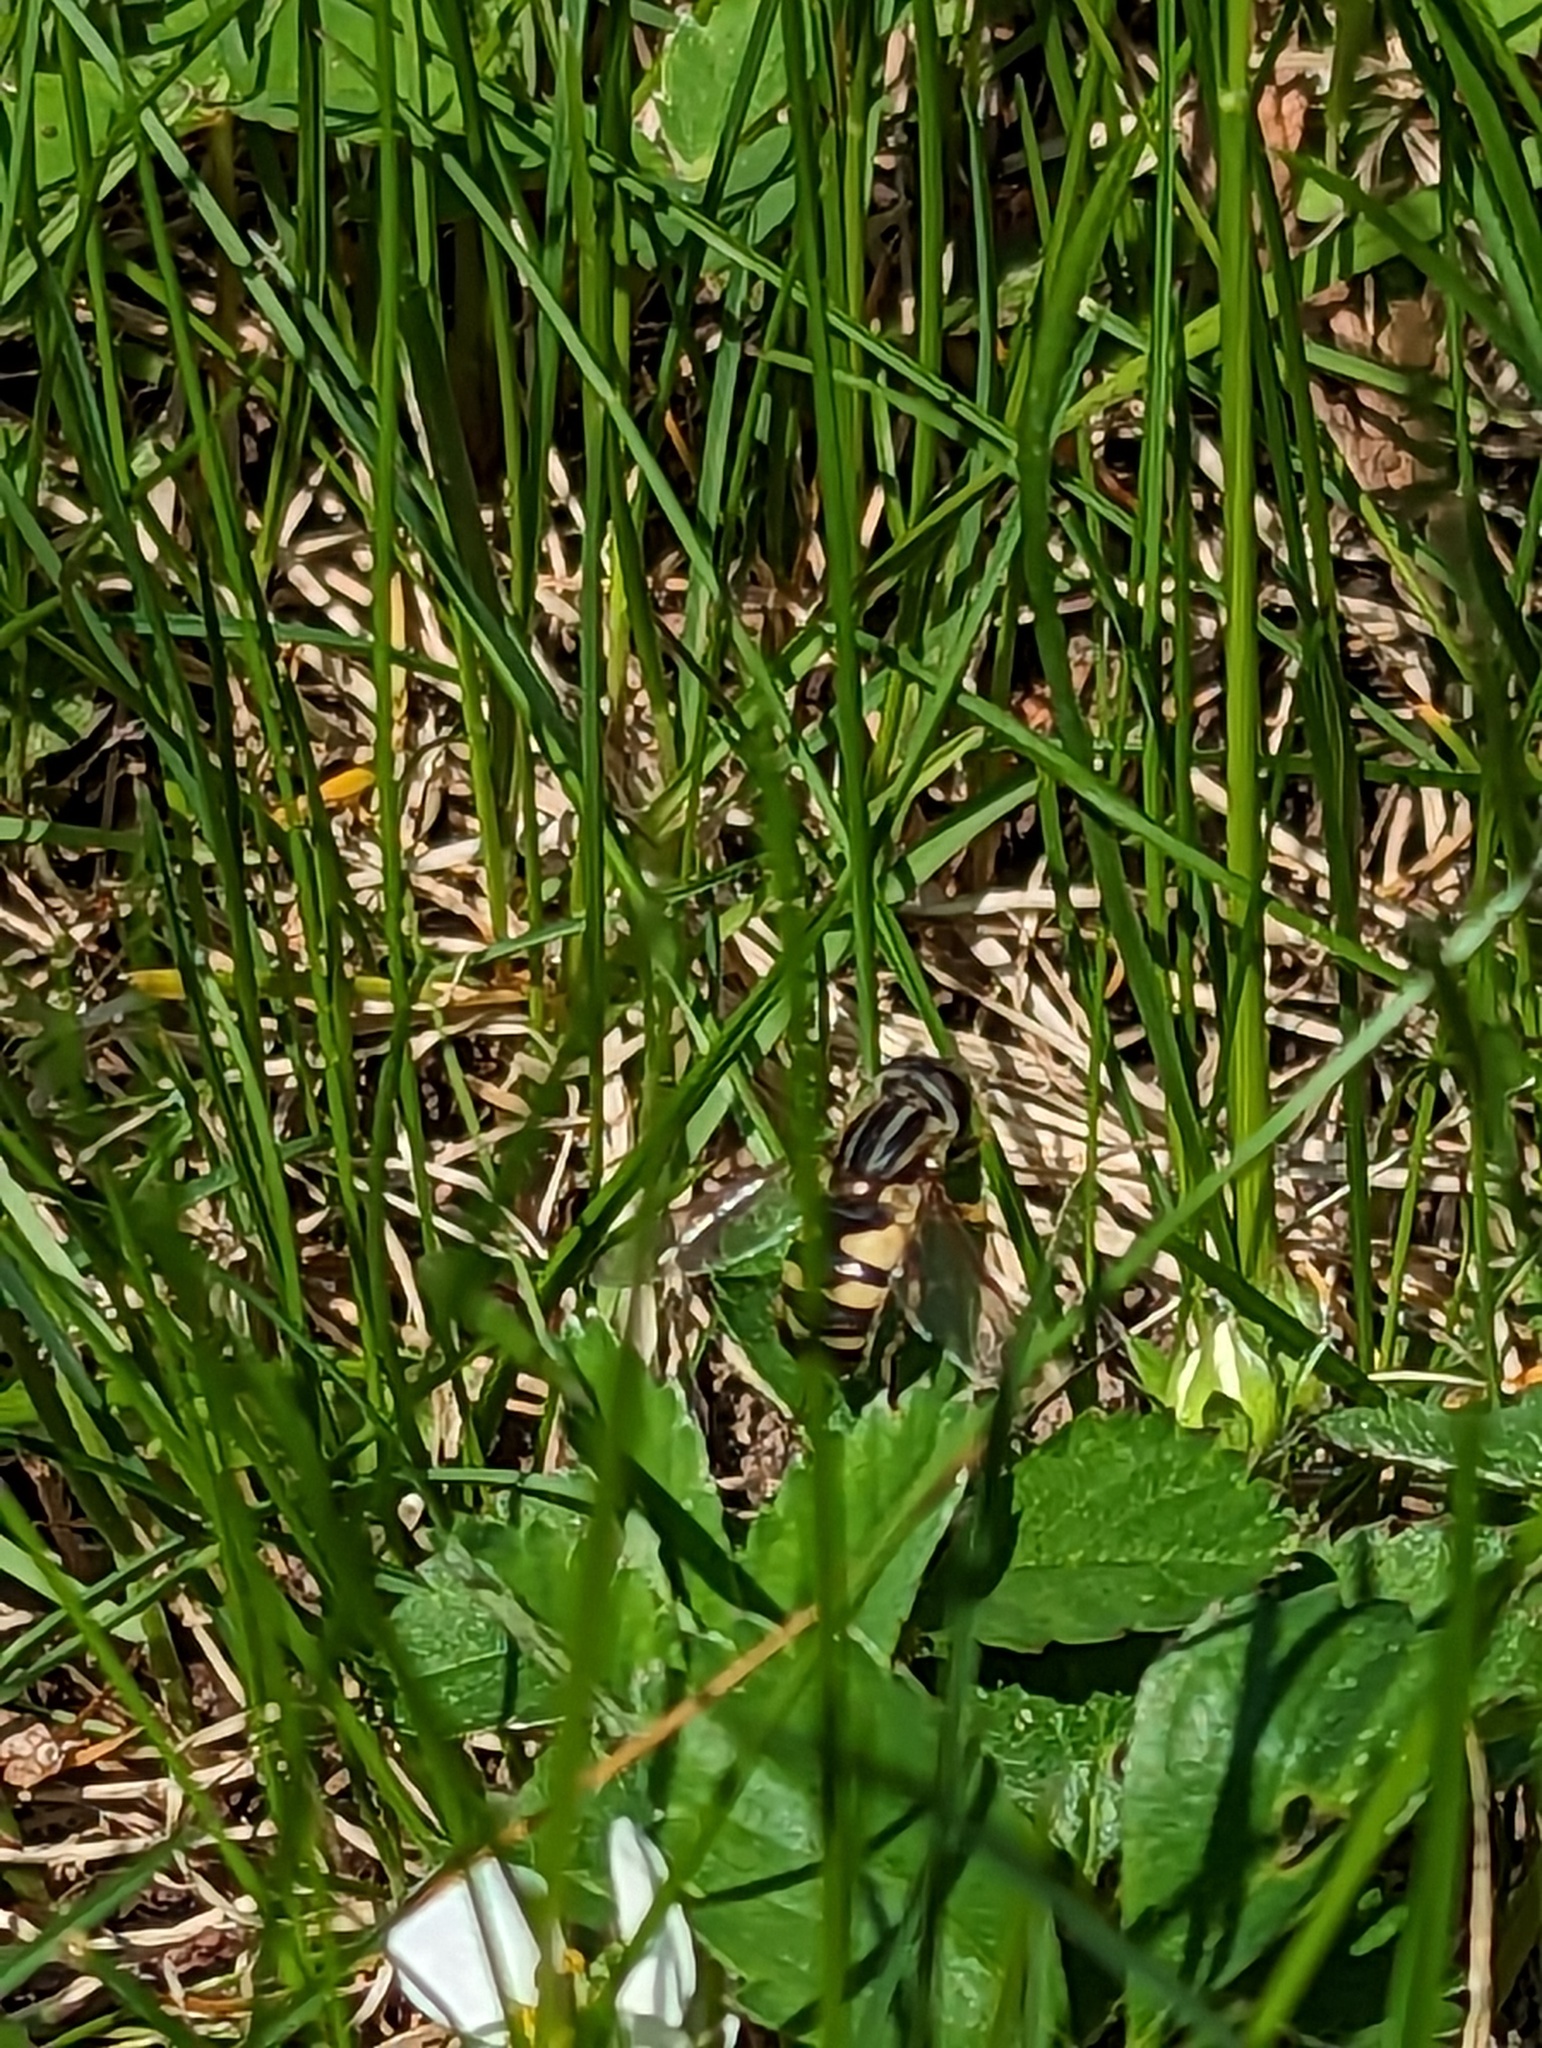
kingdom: Animalia
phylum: Arthropoda
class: Insecta
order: Diptera
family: Syrphidae
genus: Helophilus
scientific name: Helophilus fasciatus
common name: Narrow-headed marsh fly
